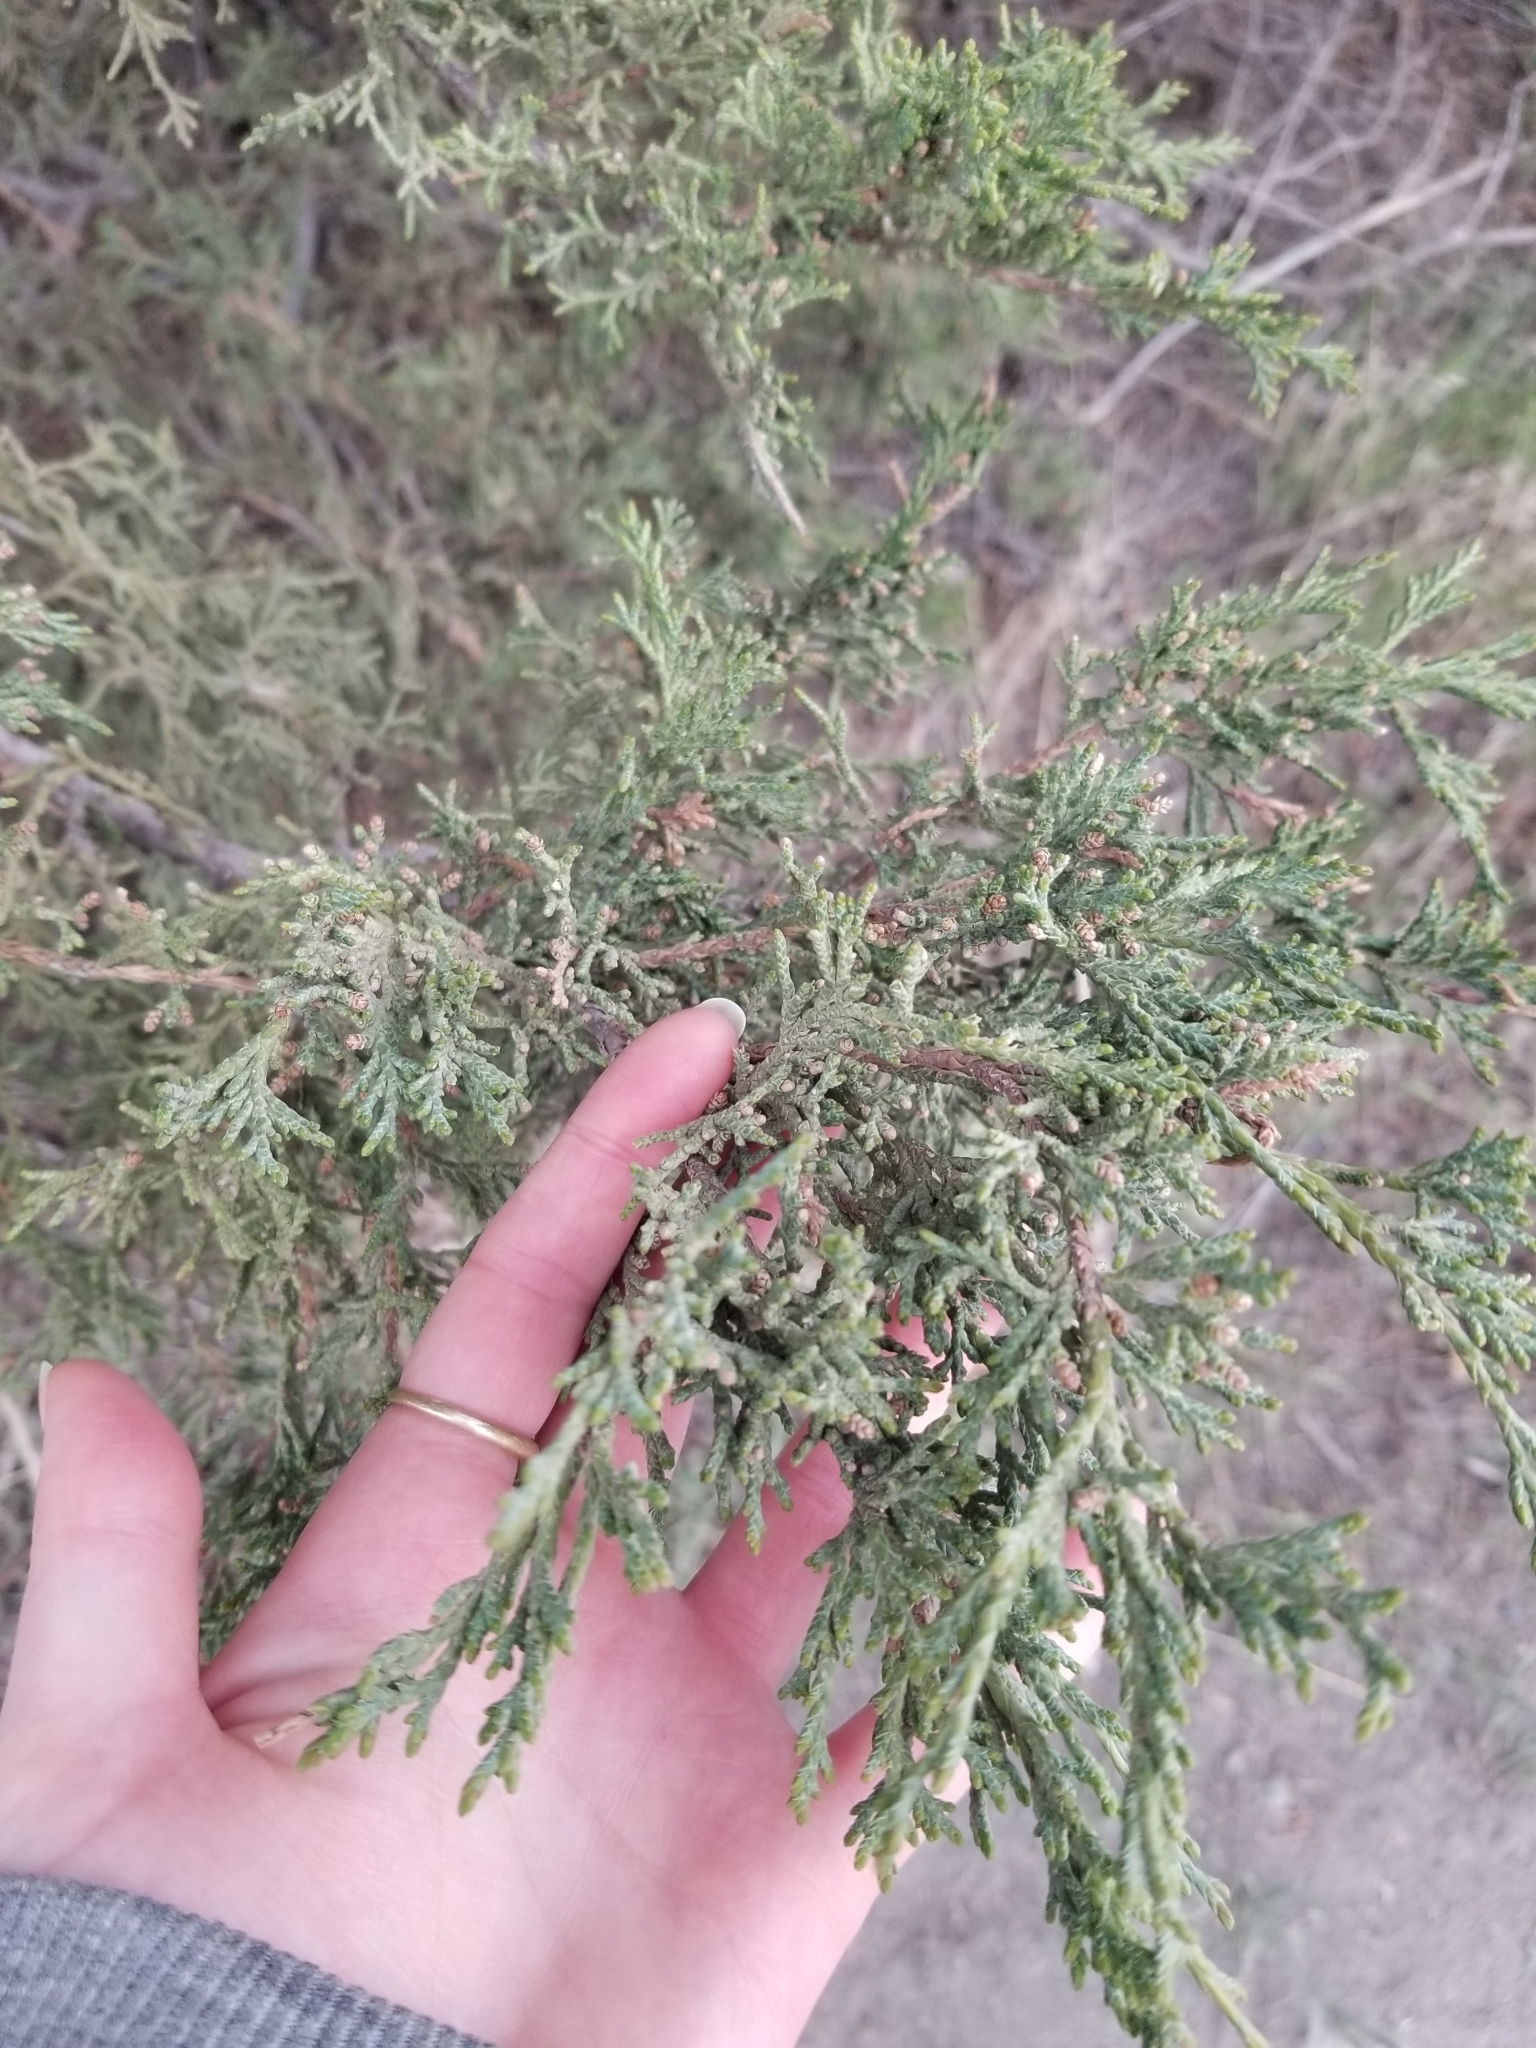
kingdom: Plantae
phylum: Tracheophyta
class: Pinopsida
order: Pinales
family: Cupressaceae
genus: Juniperus
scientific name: Juniperus scopulorum
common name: Rocky mountain juniper
